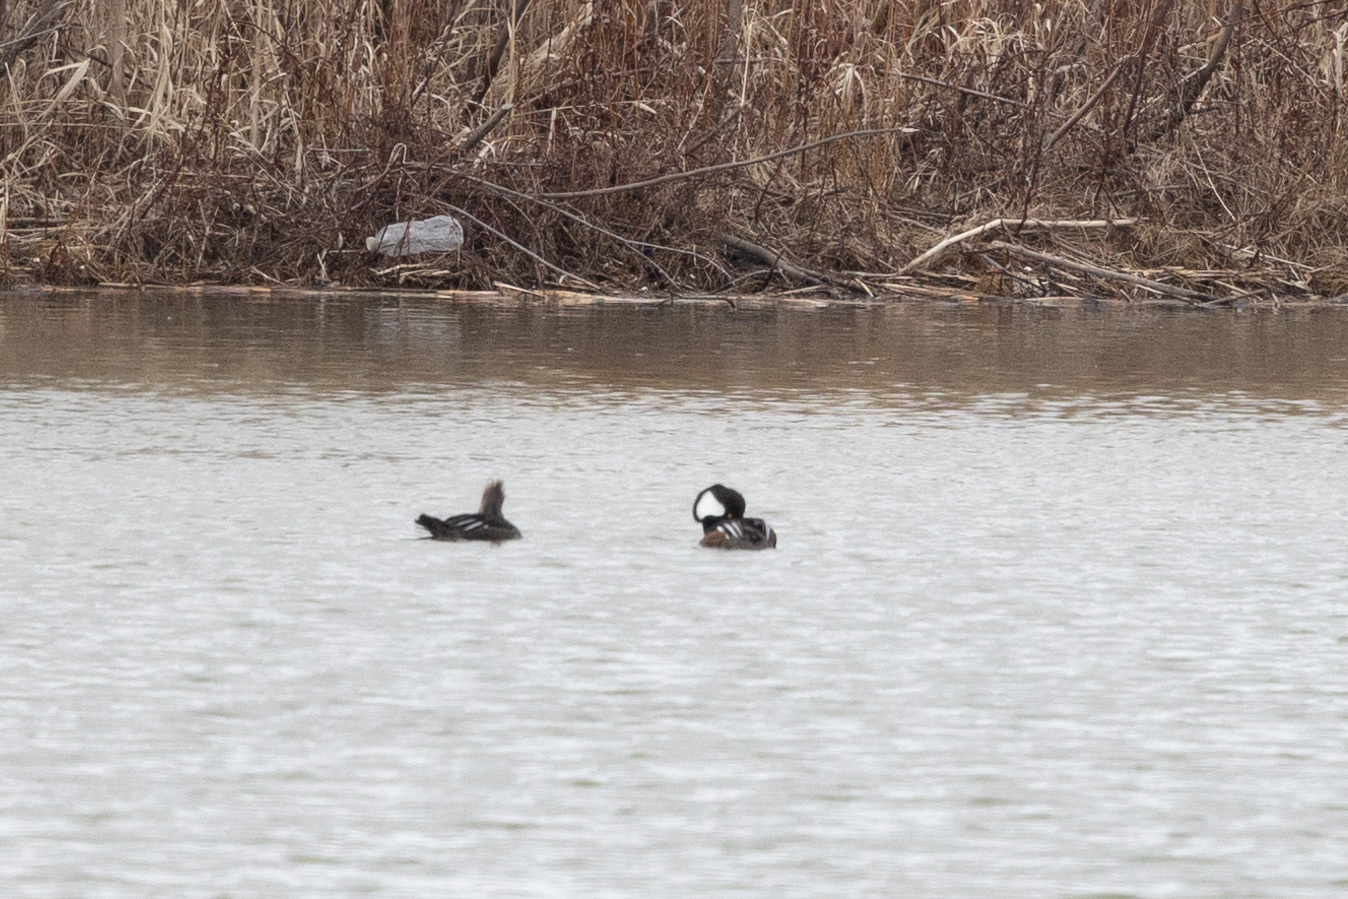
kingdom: Animalia
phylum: Chordata
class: Aves
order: Anseriformes
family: Anatidae
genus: Lophodytes
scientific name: Lophodytes cucullatus
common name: Hooded merganser
